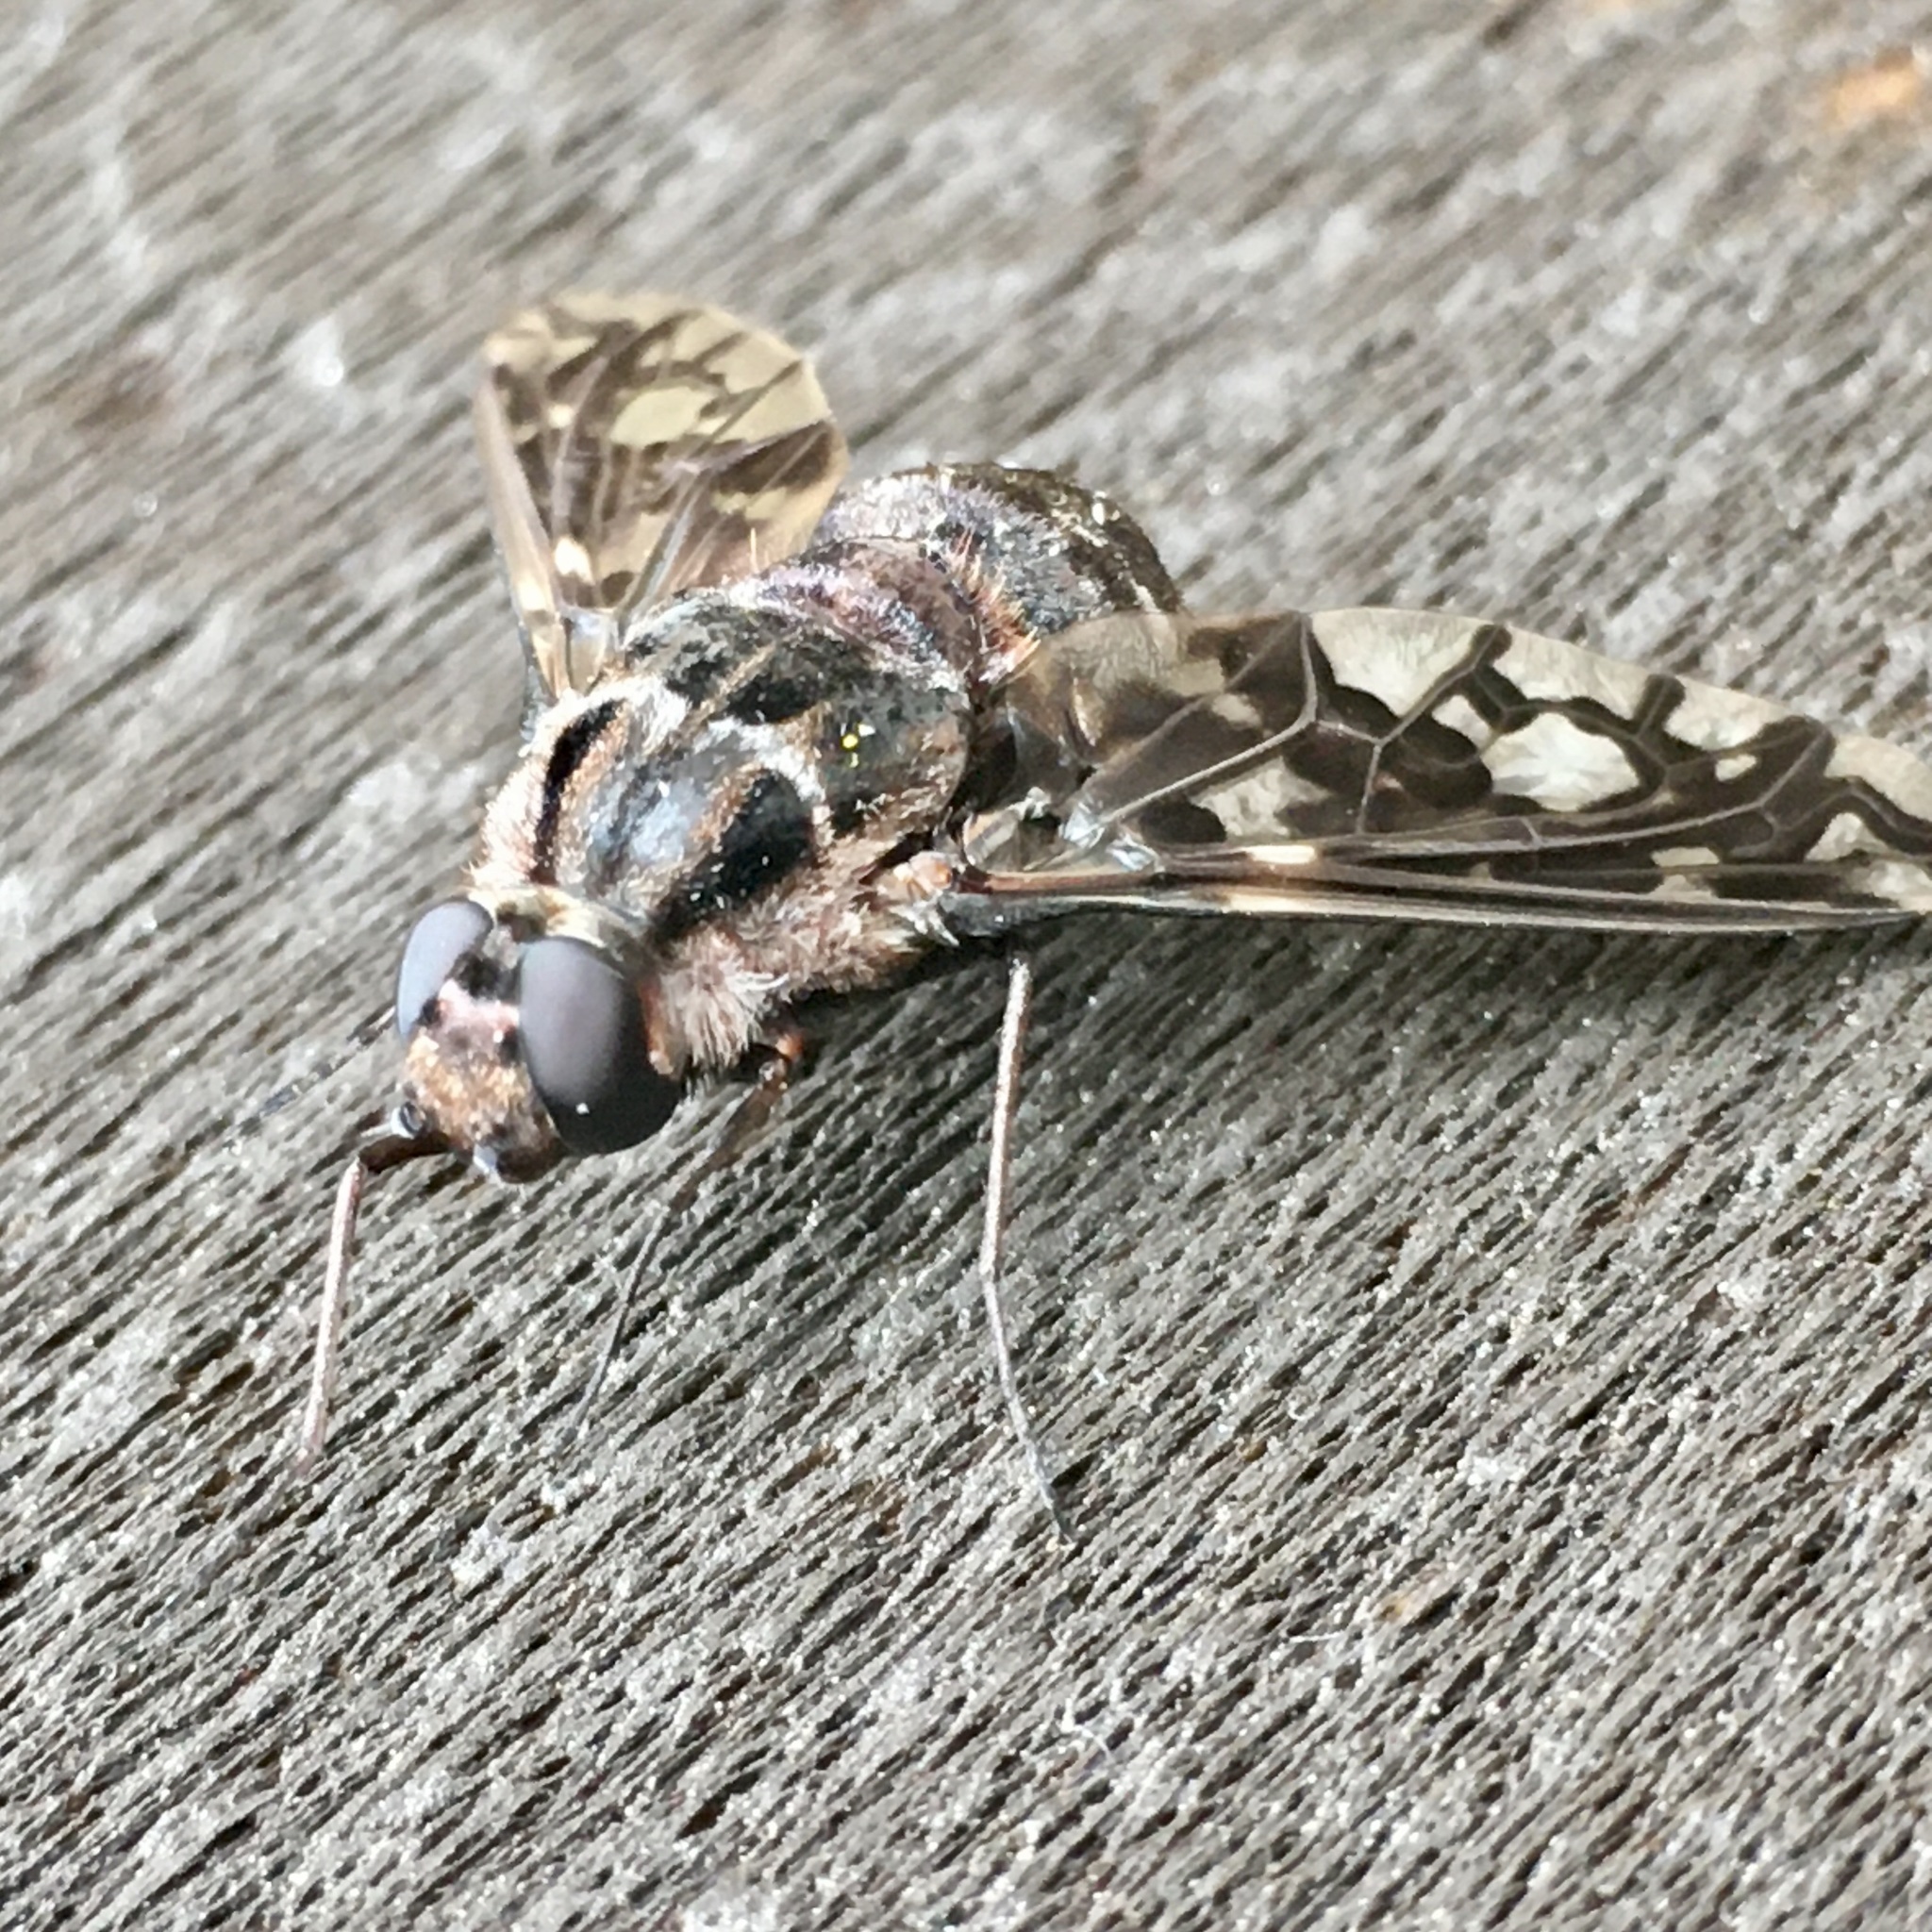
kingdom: Animalia
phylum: Arthropoda
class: Insecta
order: Diptera
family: Bombyliidae
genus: Xenox
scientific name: Xenox tigrinus
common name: Tiger bee fly
